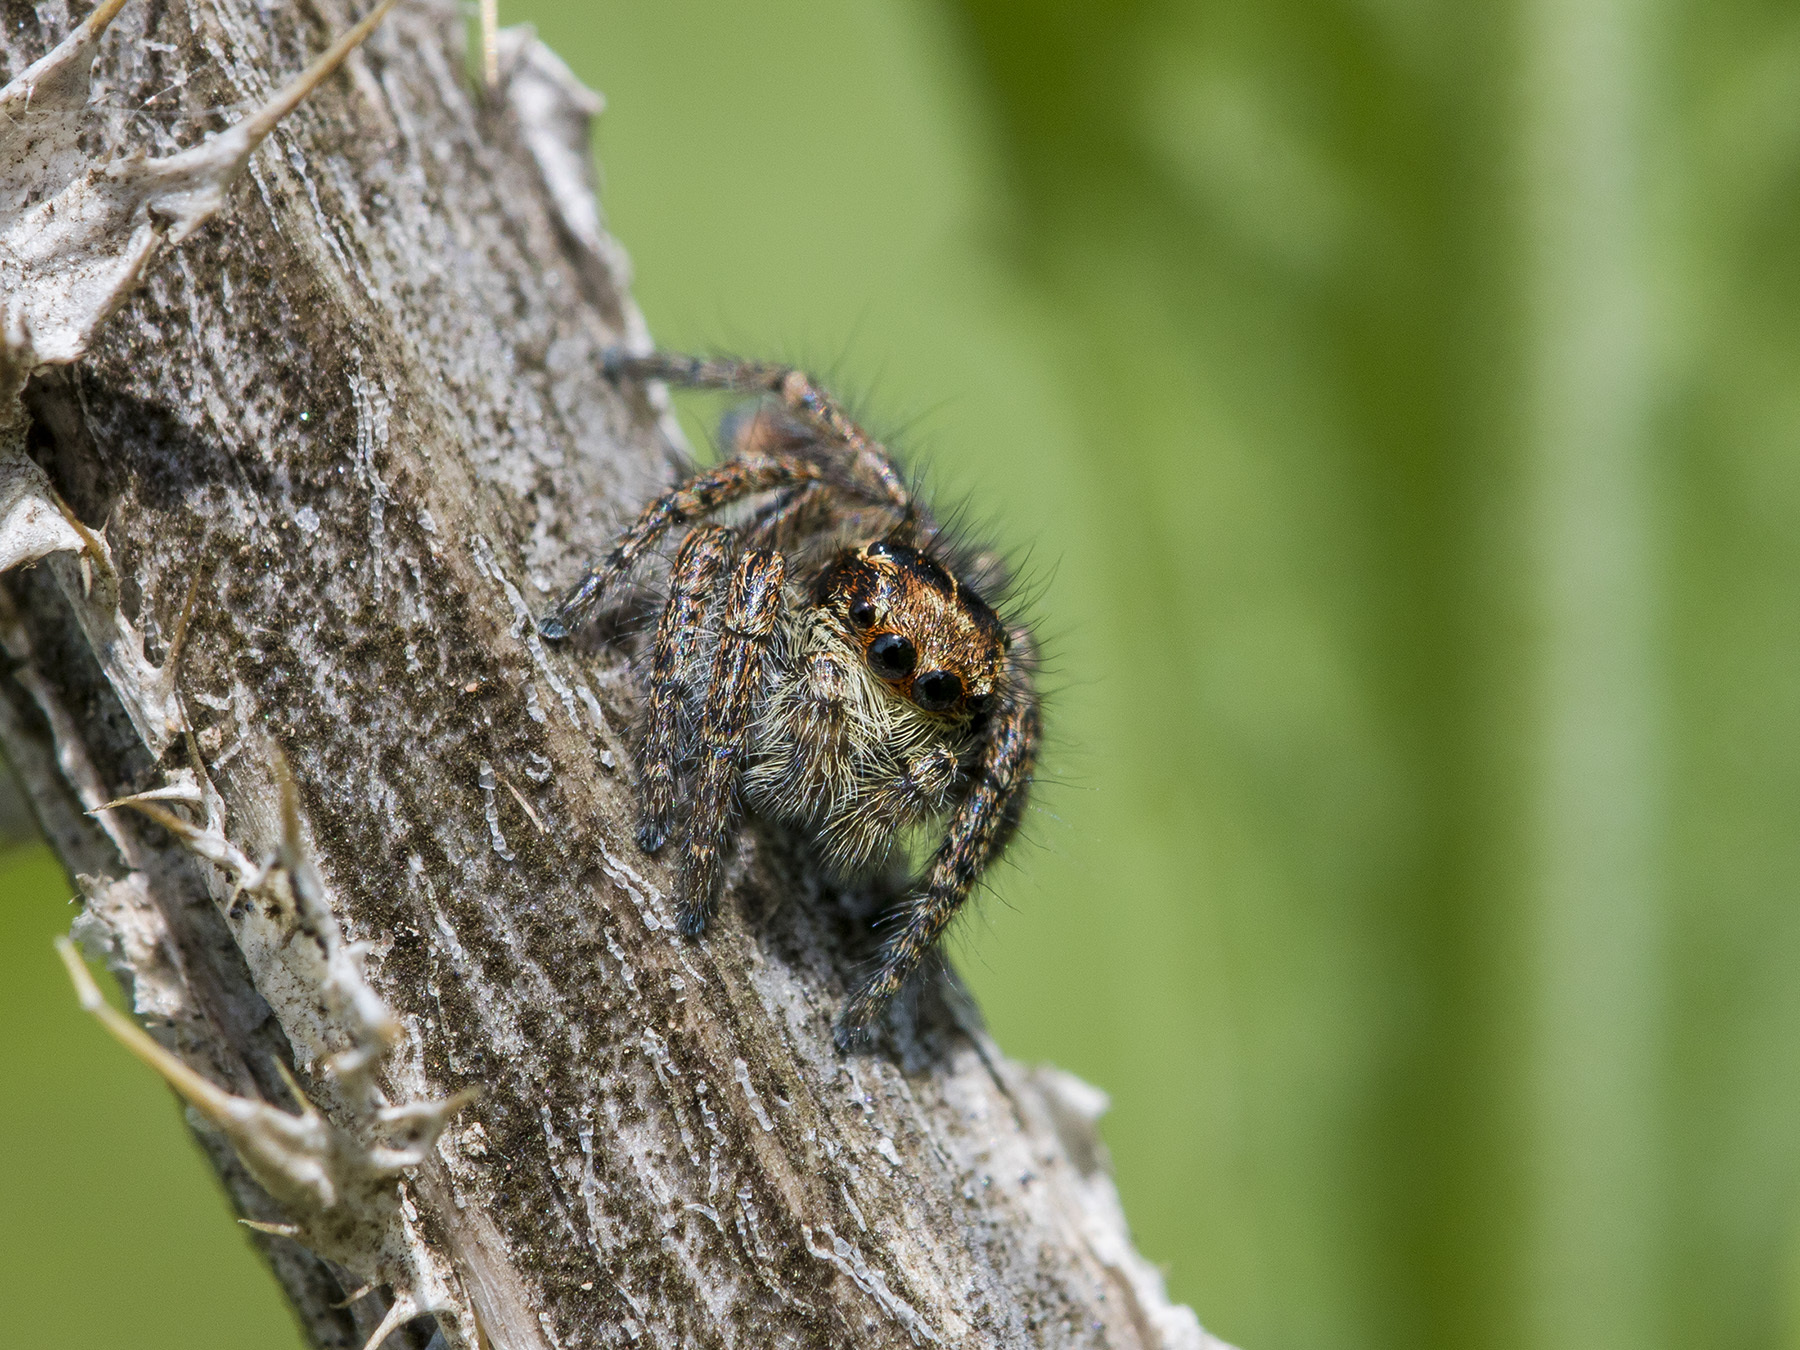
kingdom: Animalia
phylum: Arthropoda
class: Arachnida
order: Araneae
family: Salticidae
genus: Philaeus
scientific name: Philaeus chrysops
